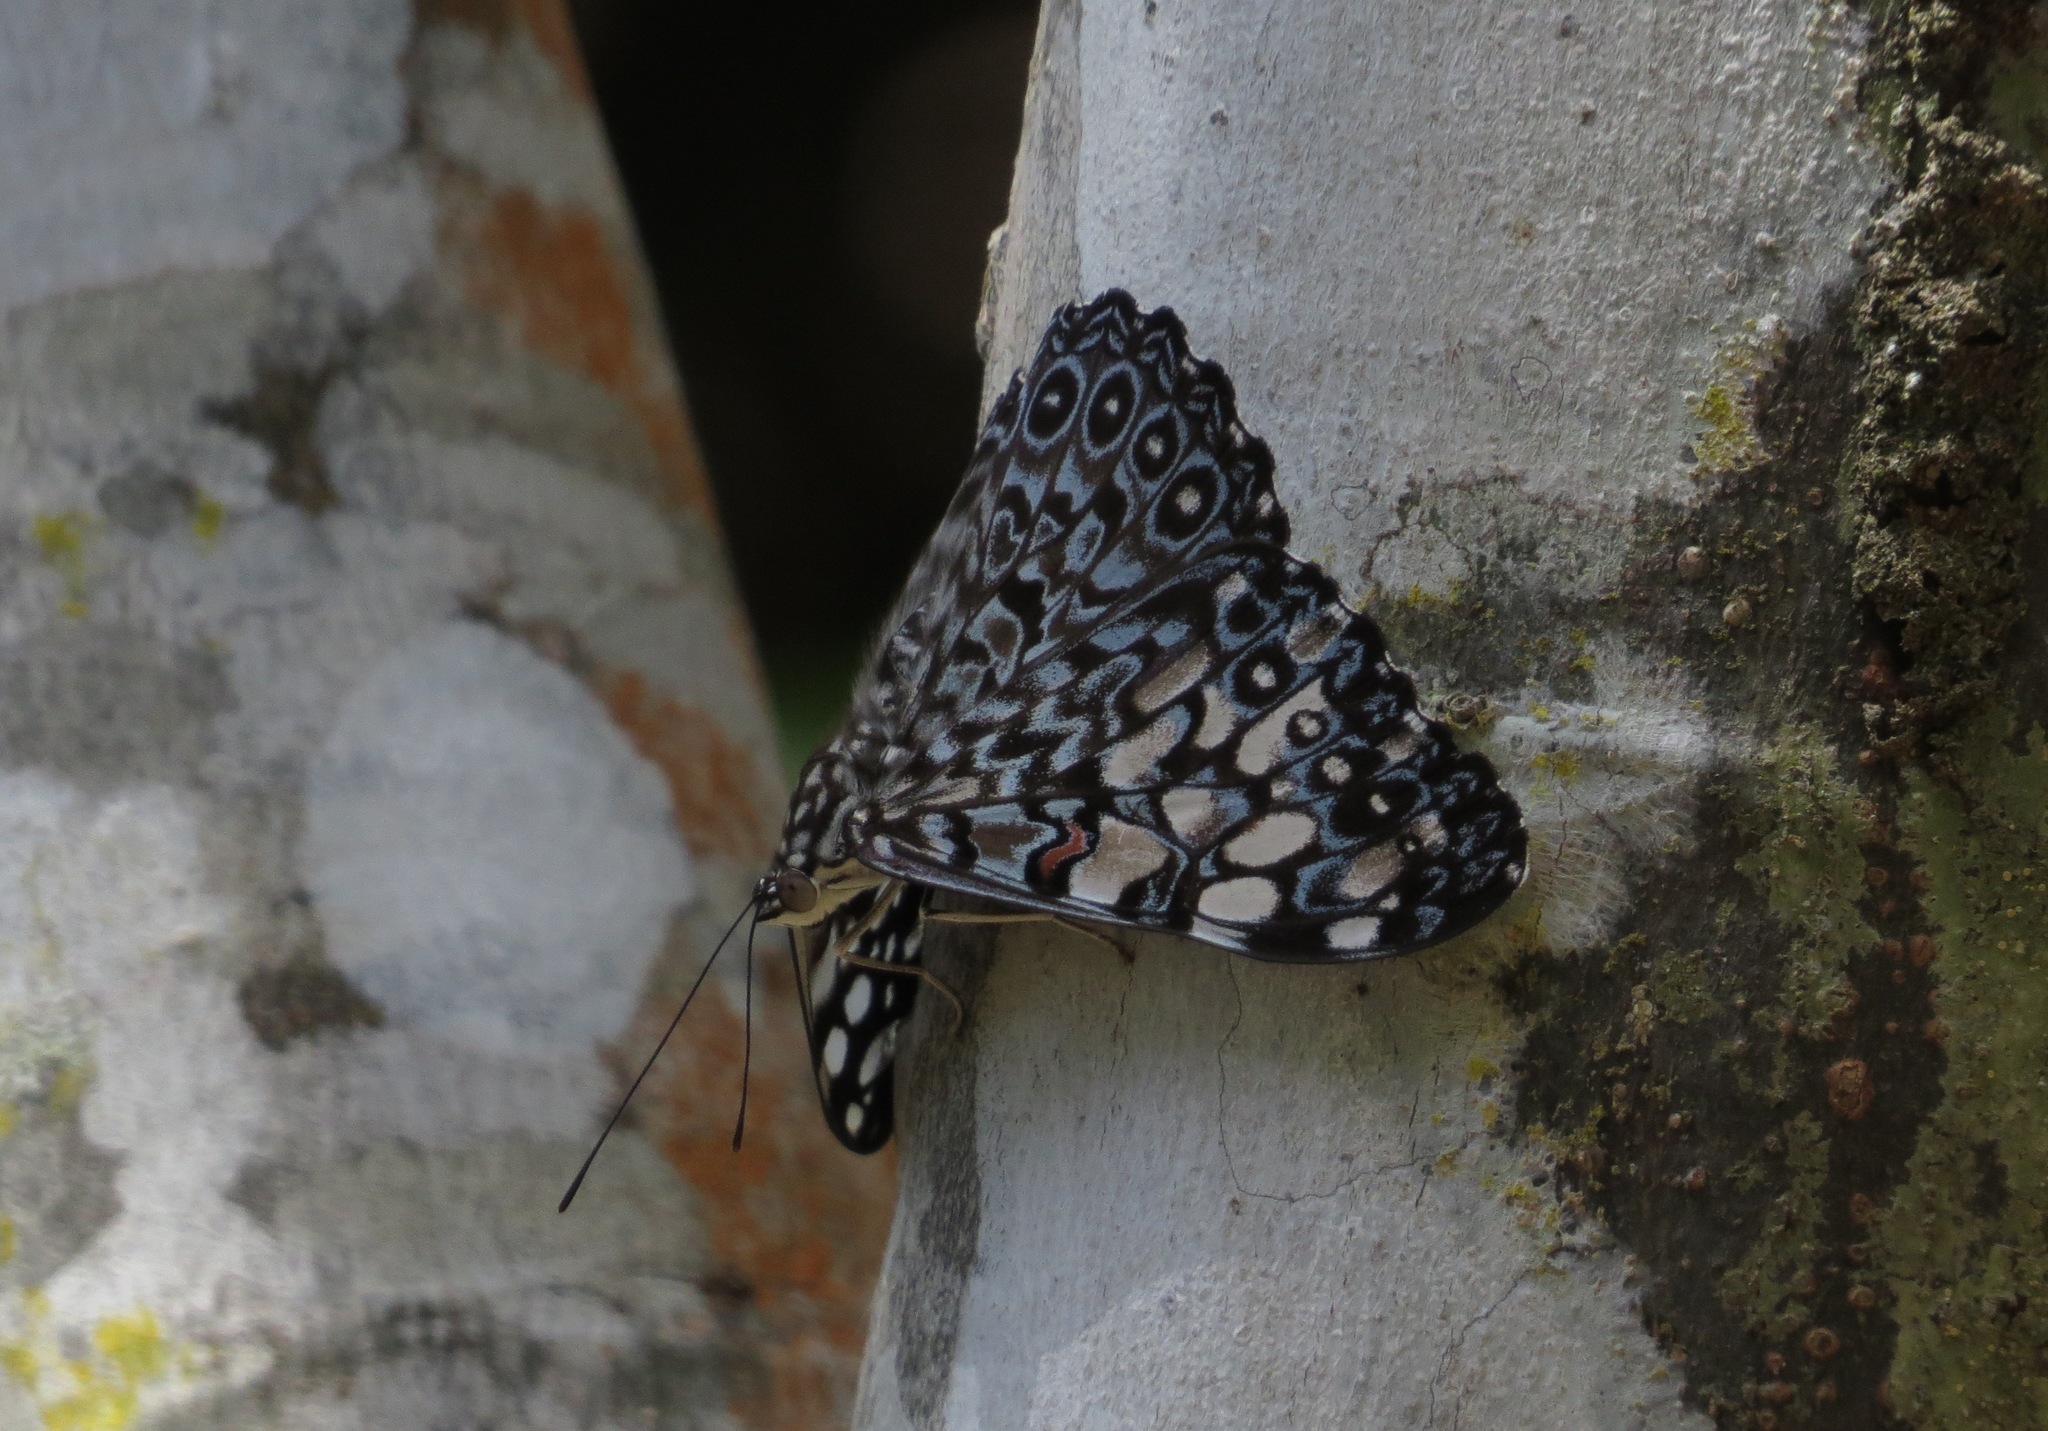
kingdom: Animalia
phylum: Arthropoda
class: Insecta
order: Lepidoptera
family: Nymphalidae
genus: Hamadryas
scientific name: Hamadryas feronia
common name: Variable cracker
